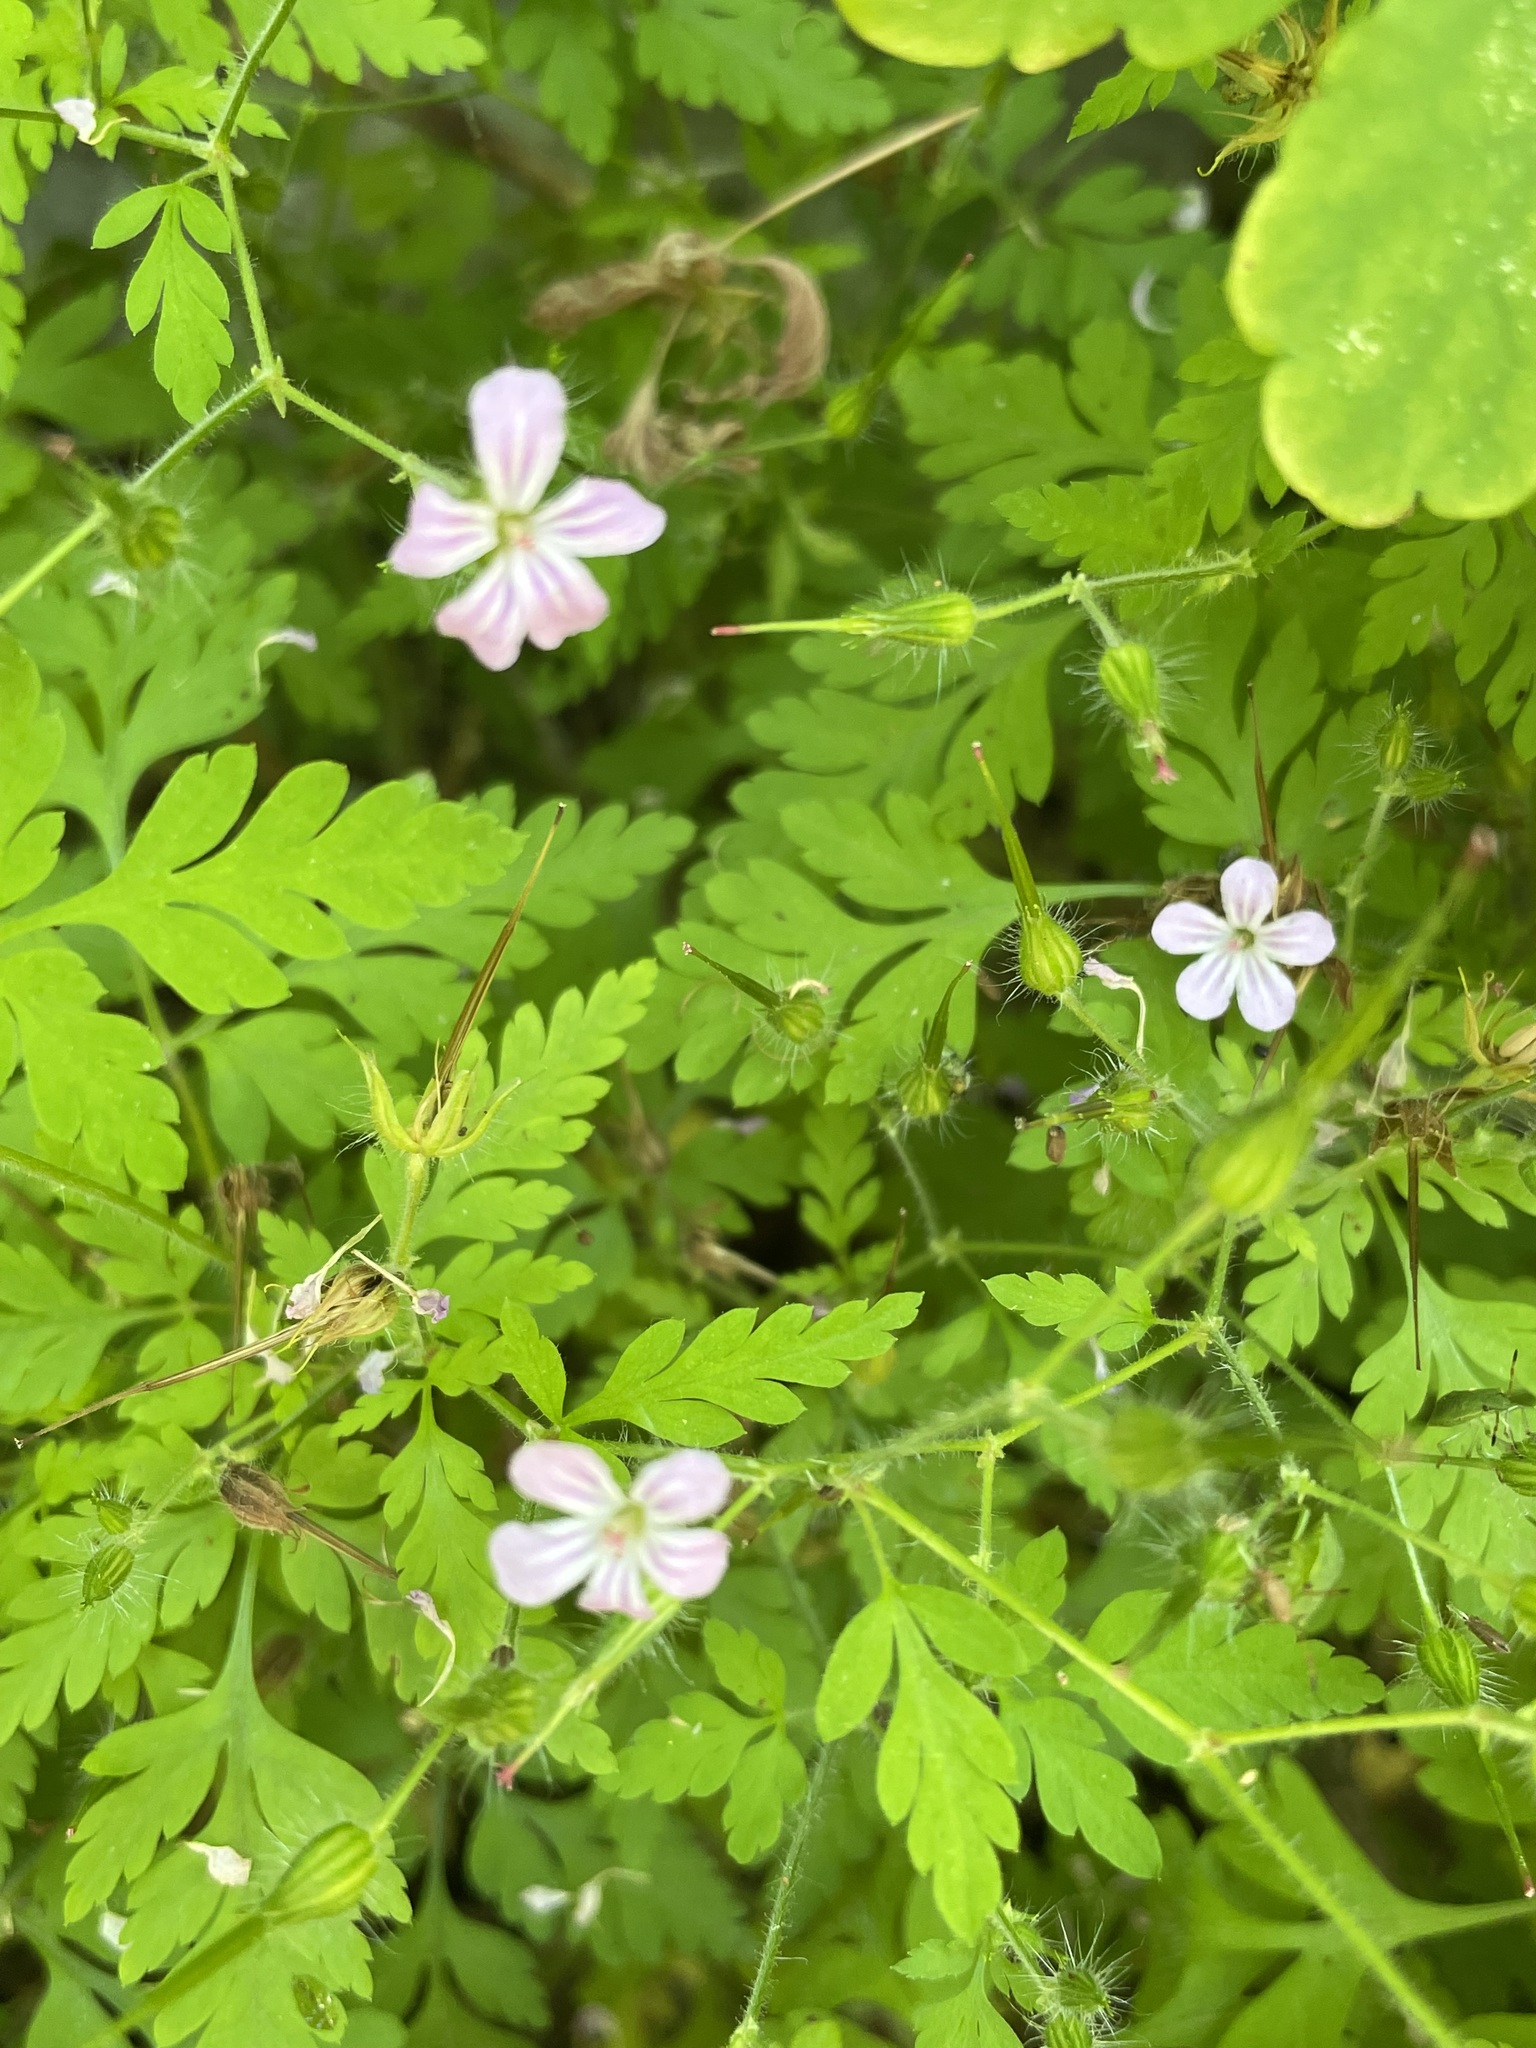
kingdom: Plantae
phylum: Tracheophyta
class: Magnoliopsida
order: Geraniales
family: Geraniaceae
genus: Geranium
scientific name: Geranium robertianum
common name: Herb-robert
